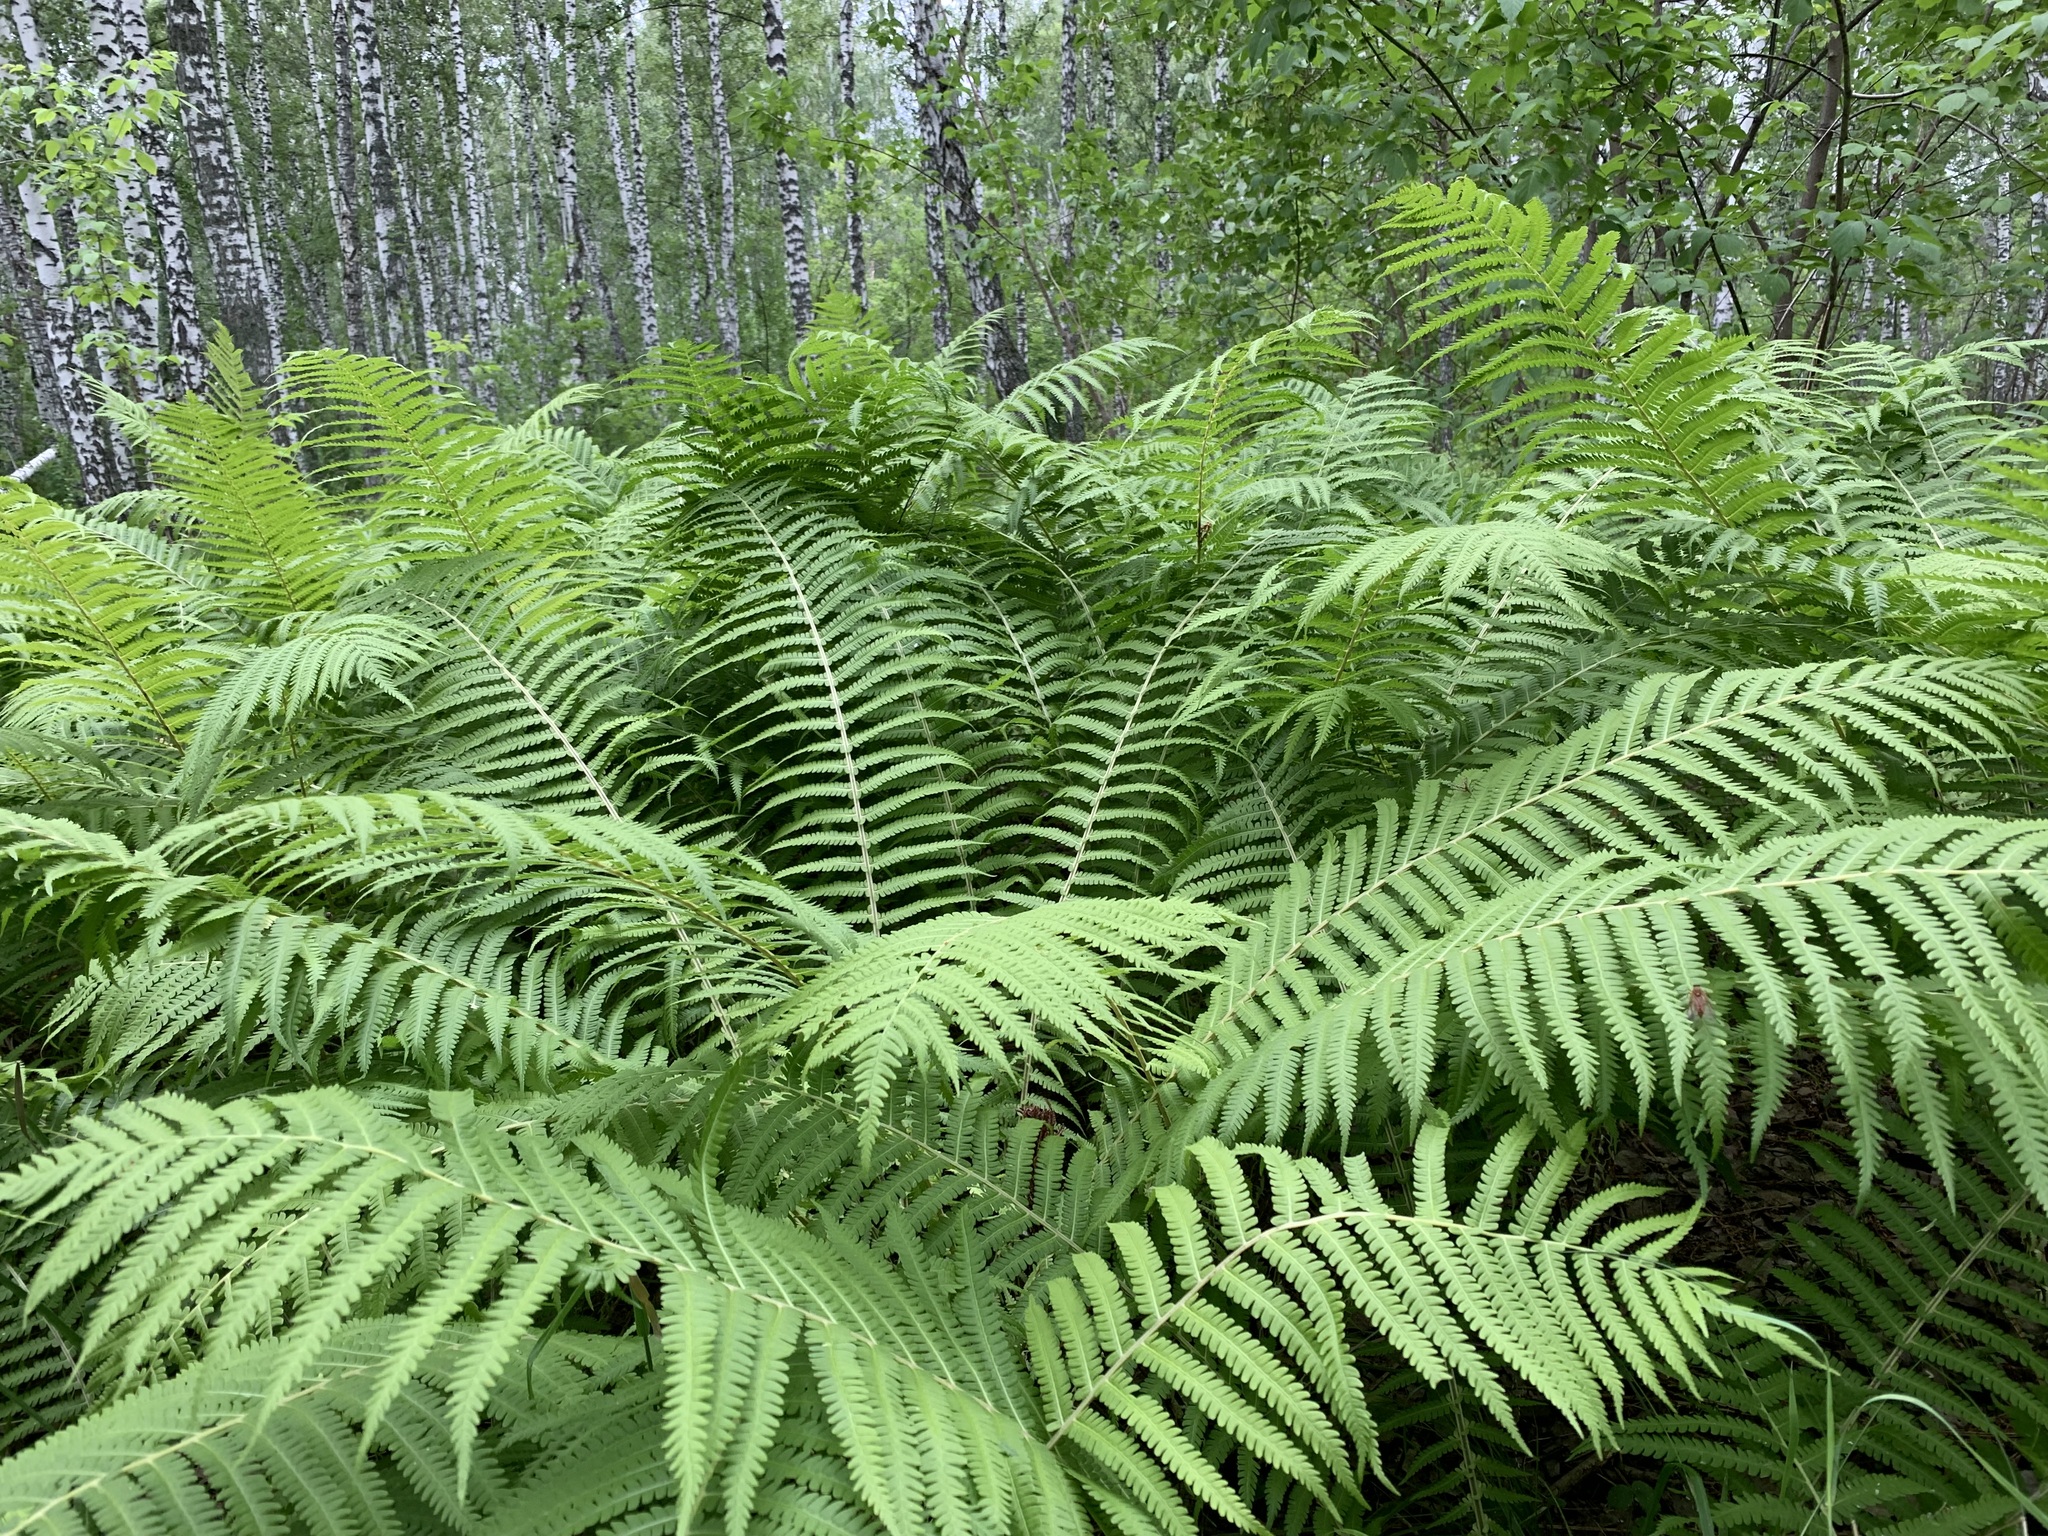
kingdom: Plantae
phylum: Tracheophyta
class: Polypodiopsida
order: Polypodiales
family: Onocleaceae
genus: Matteuccia
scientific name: Matteuccia struthiopteris
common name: Ostrich fern
